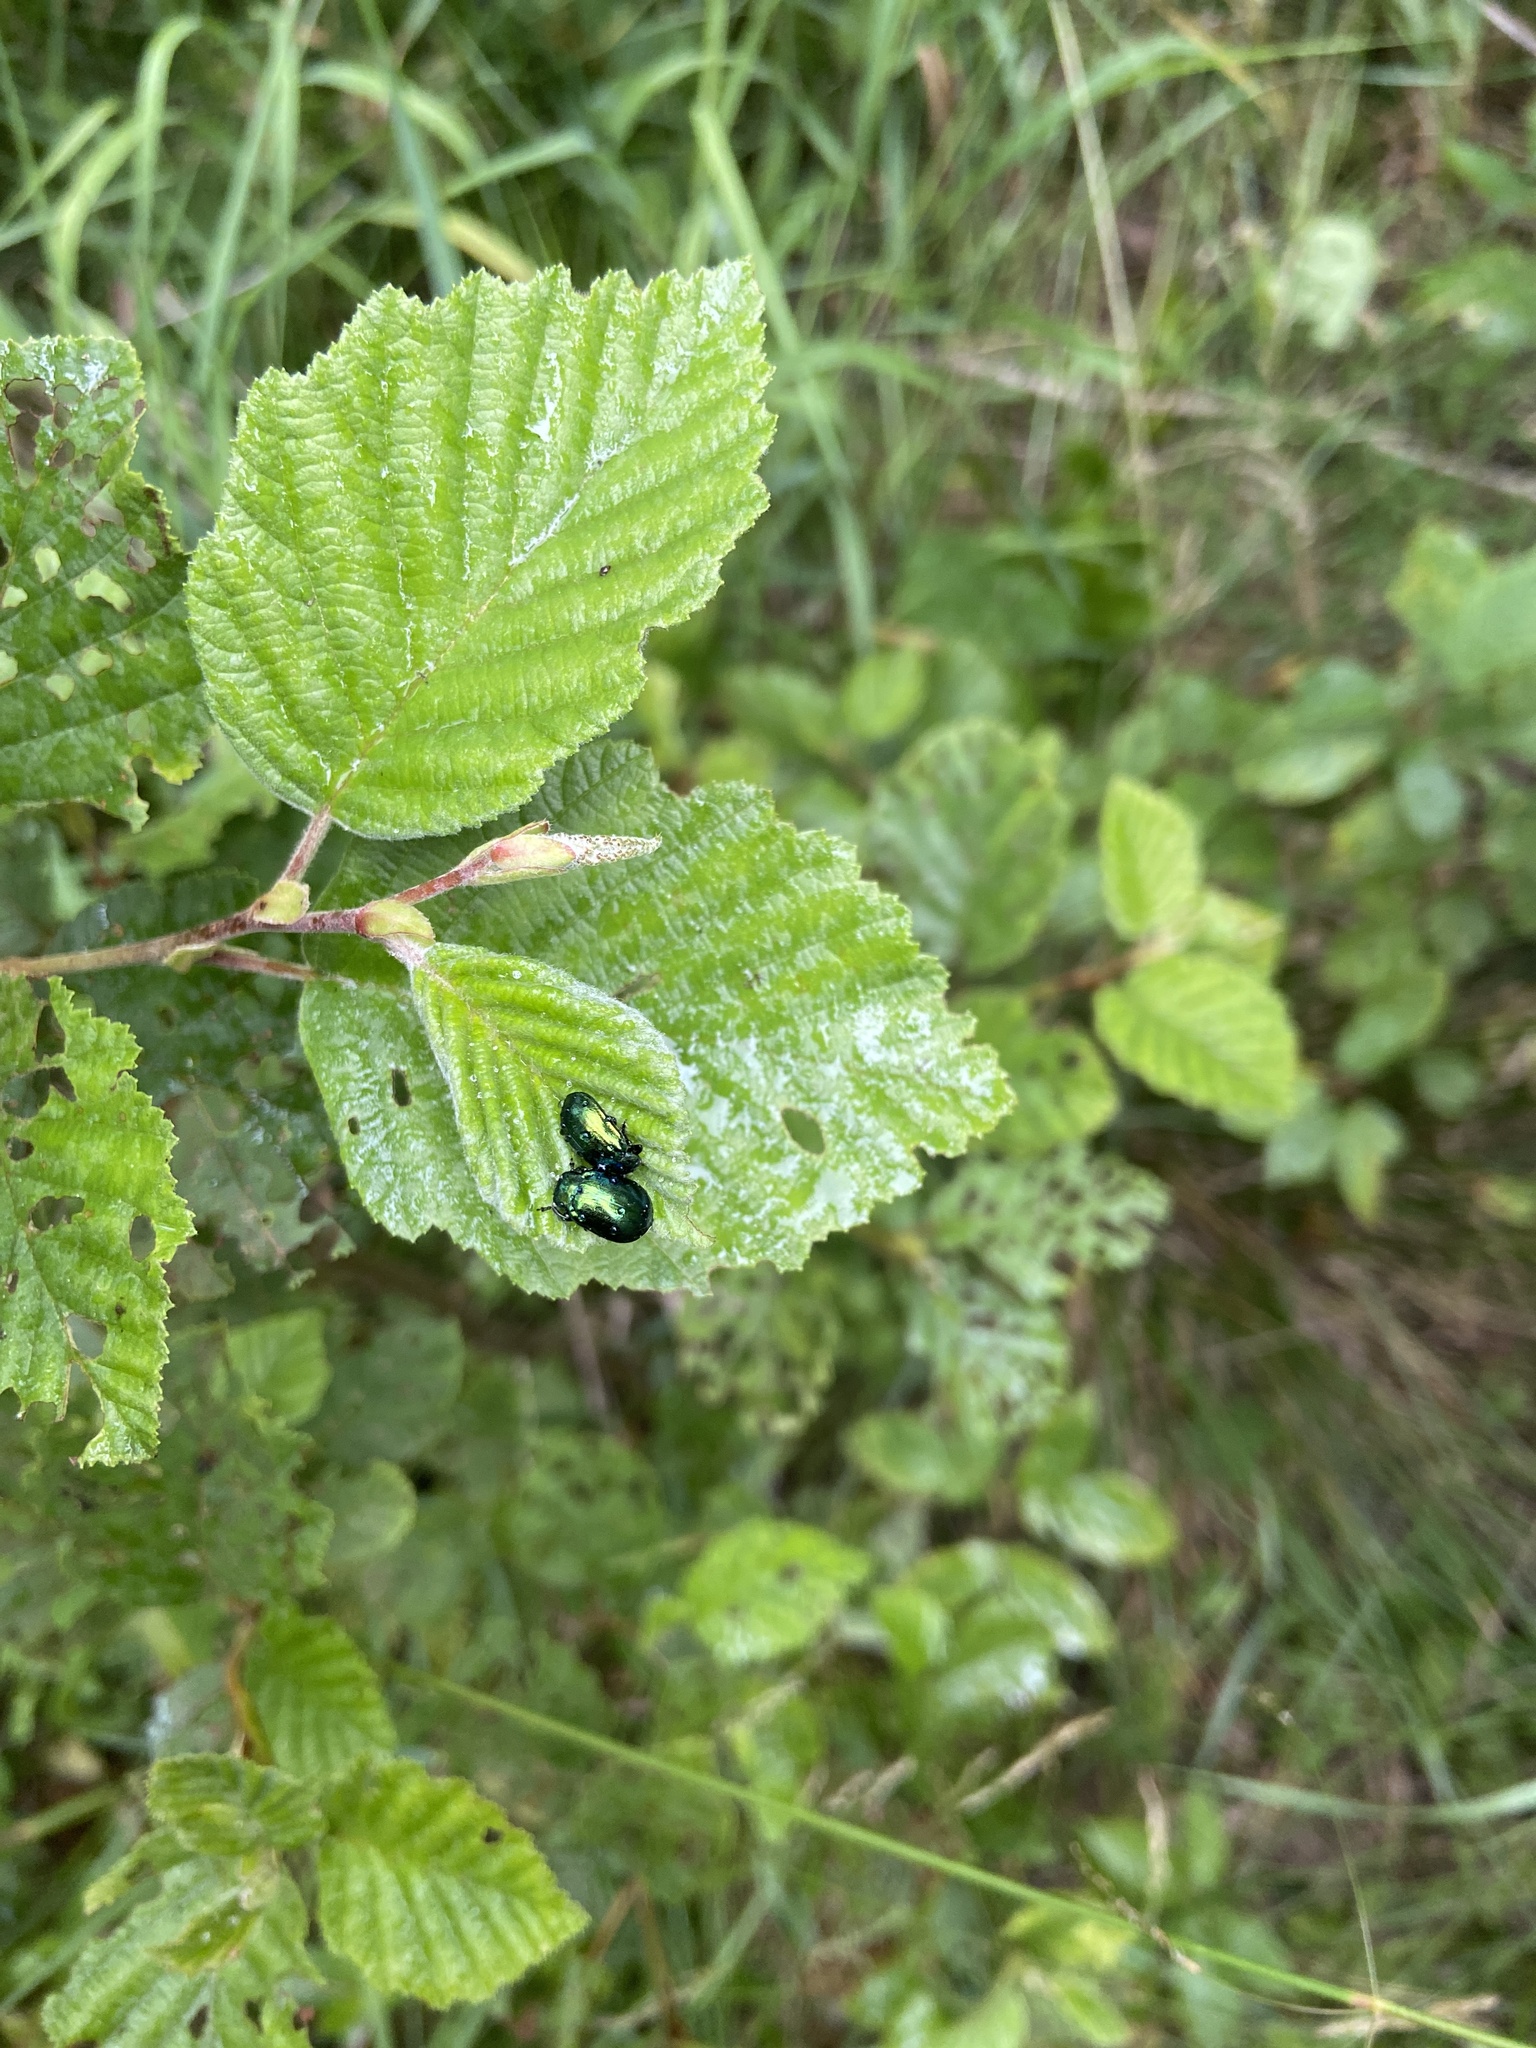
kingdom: Animalia
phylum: Arthropoda
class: Insecta
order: Coleoptera
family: Chrysomelidae
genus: Plagiosterna
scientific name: Plagiosterna aenea
